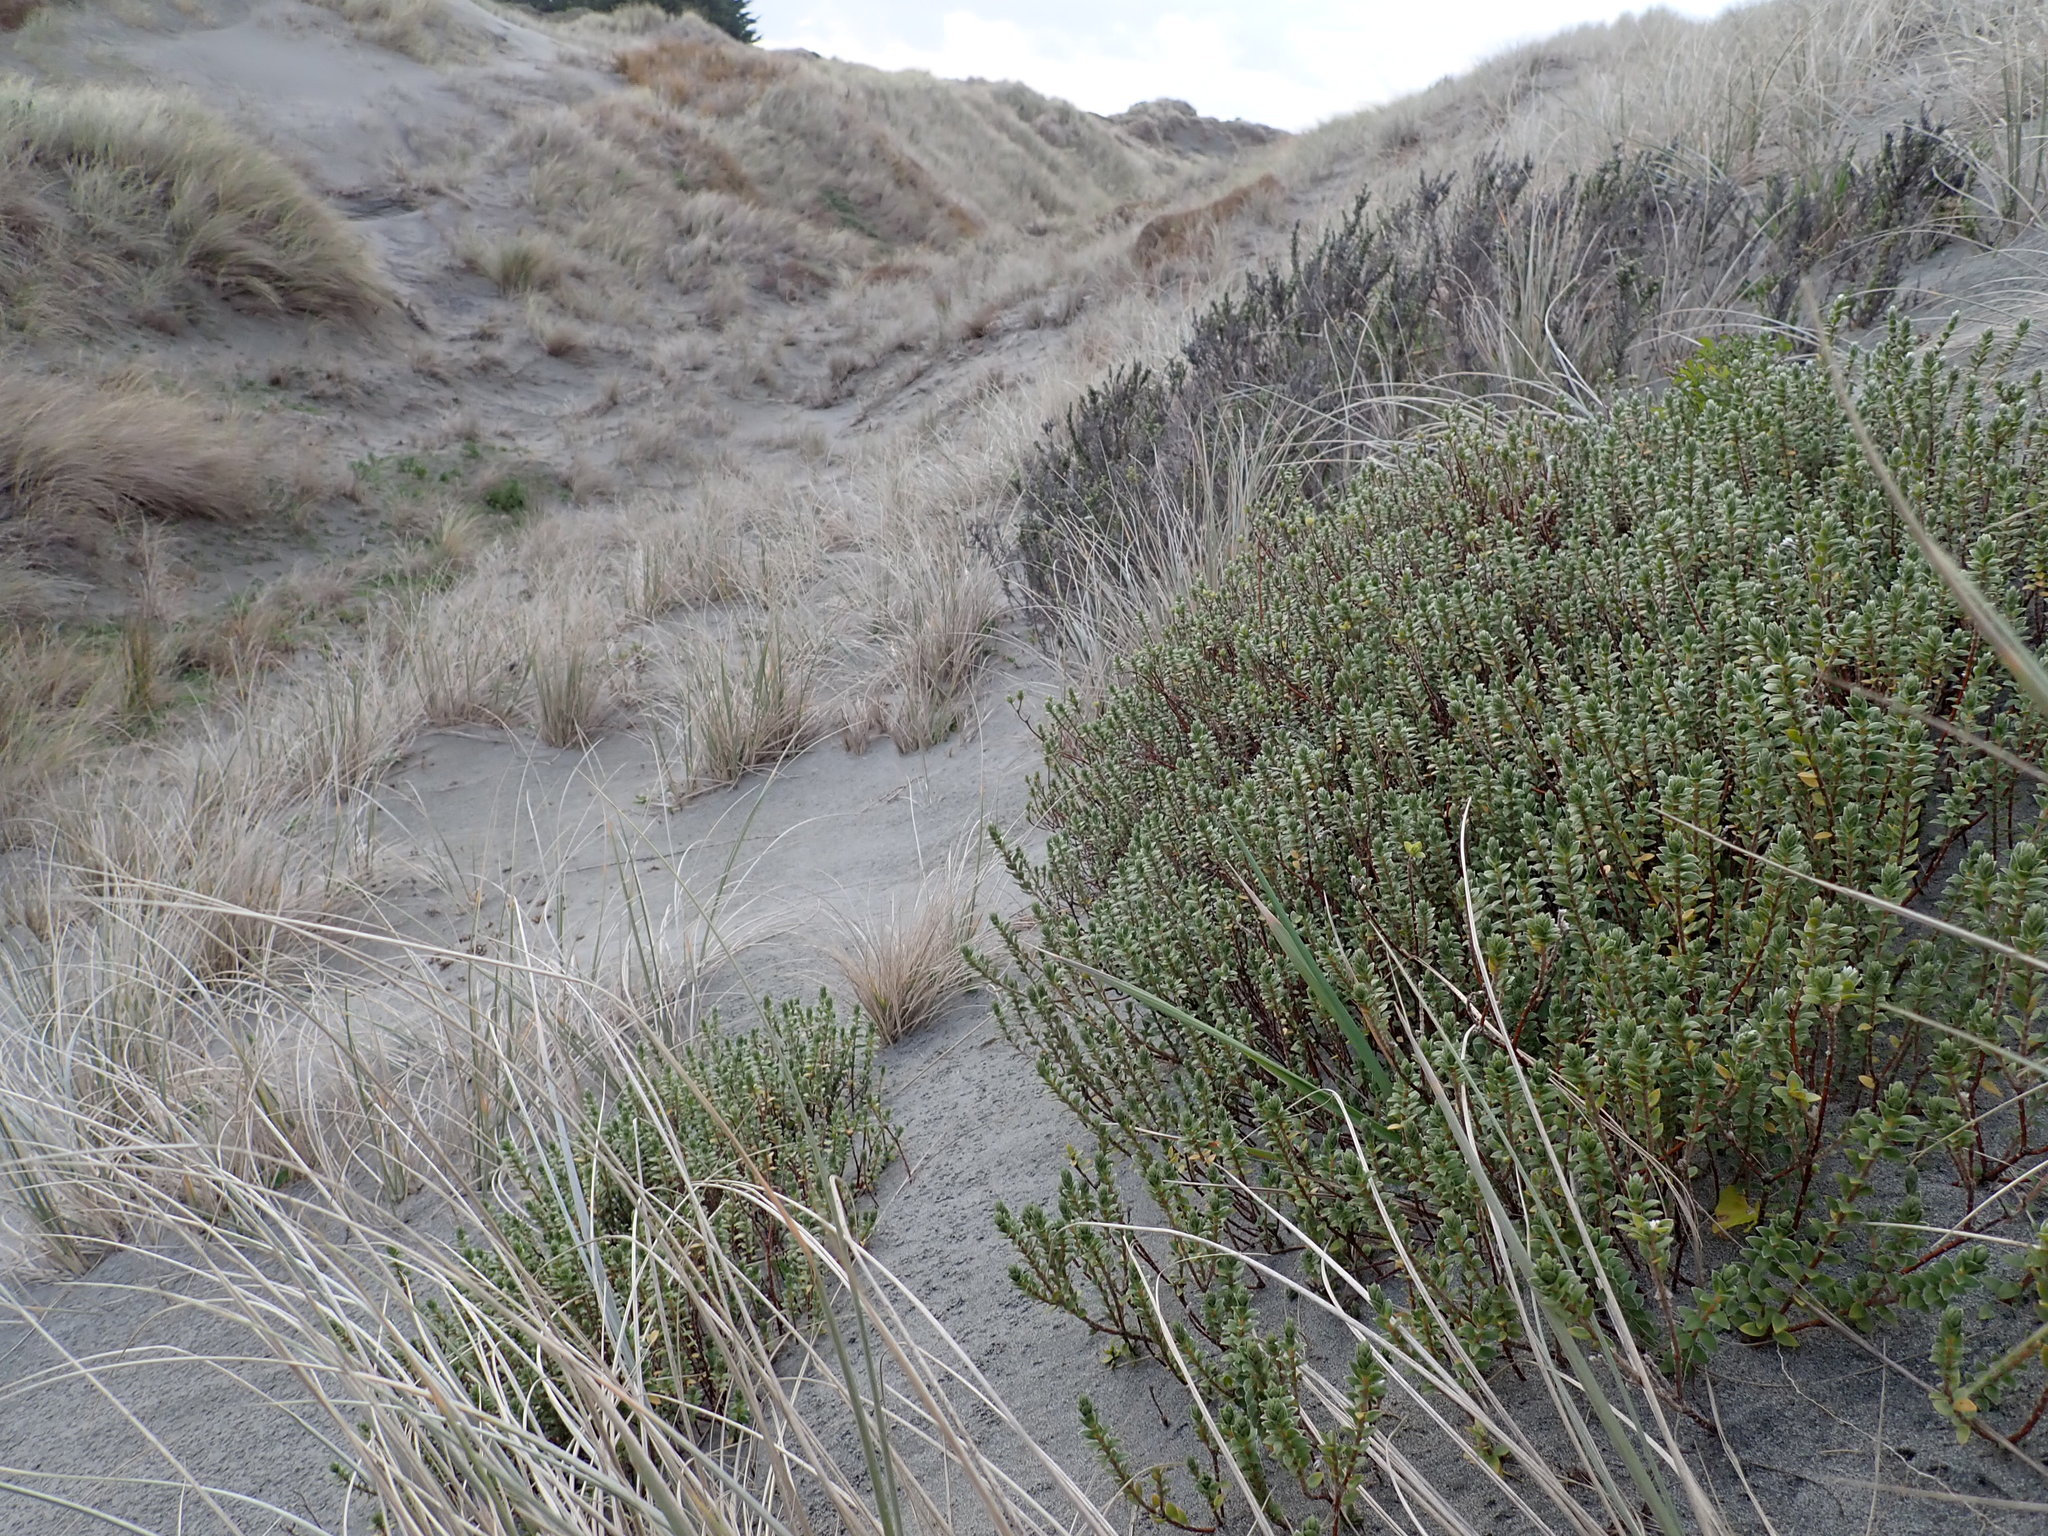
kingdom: Plantae
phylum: Tracheophyta
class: Magnoliopsida
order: Malvales
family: Thymelaeaceae
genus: Pimelea
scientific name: Pimelea villosa
